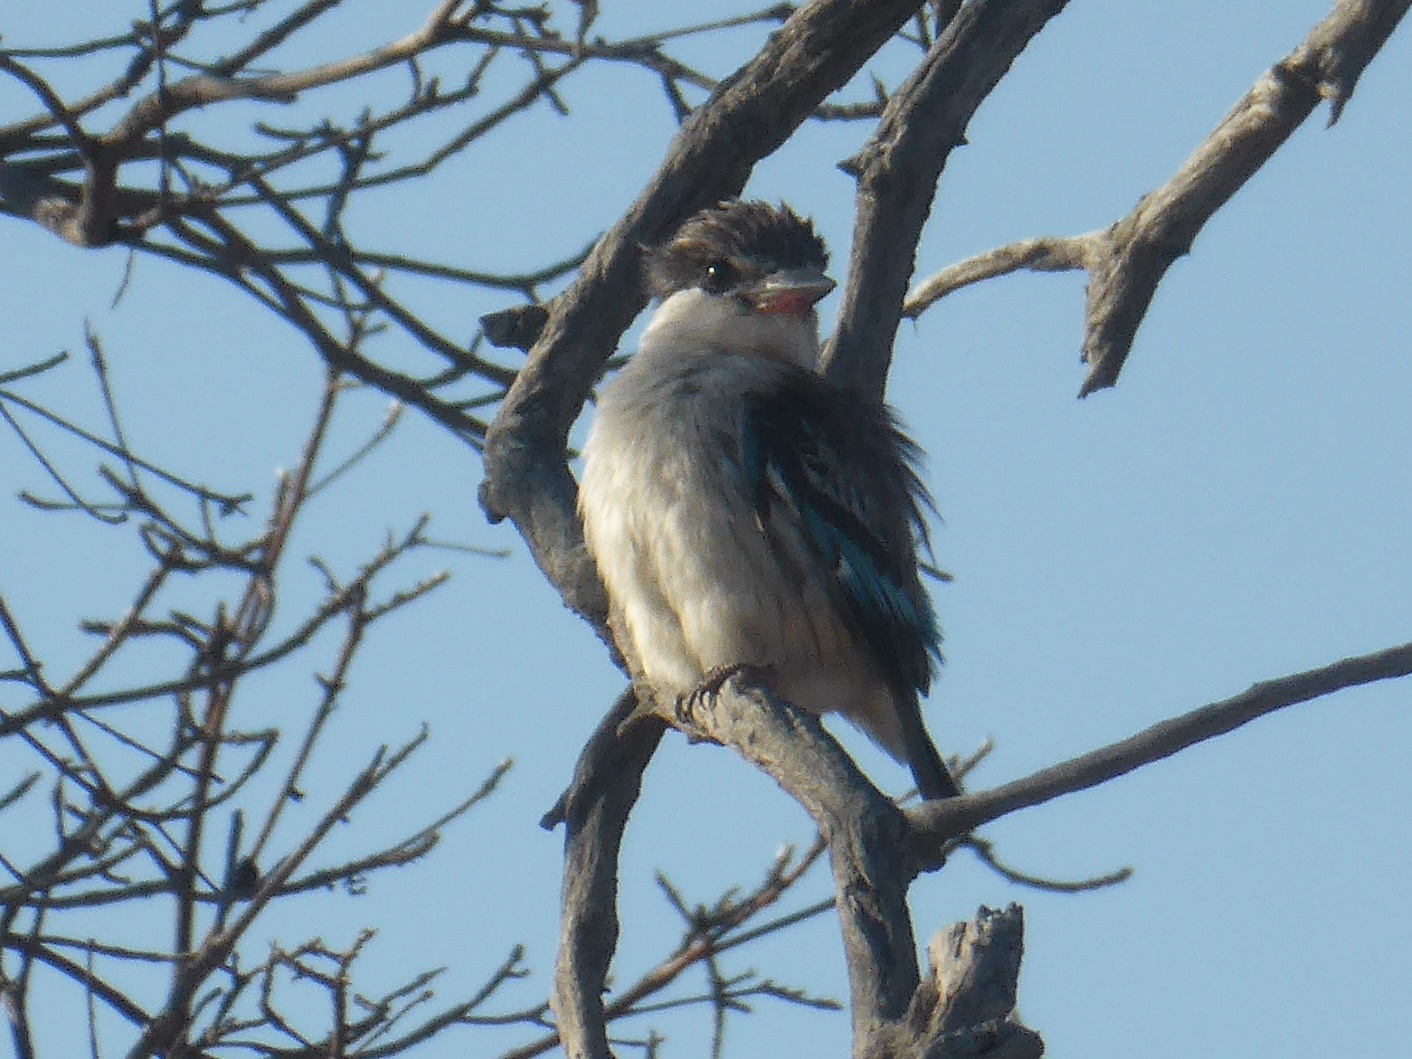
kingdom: Animalia
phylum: Chordata
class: Aves
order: Coraciiformes
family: Alcedinidae
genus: Halcyon
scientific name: Halcyon chelicuti
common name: Striped kingfisher
